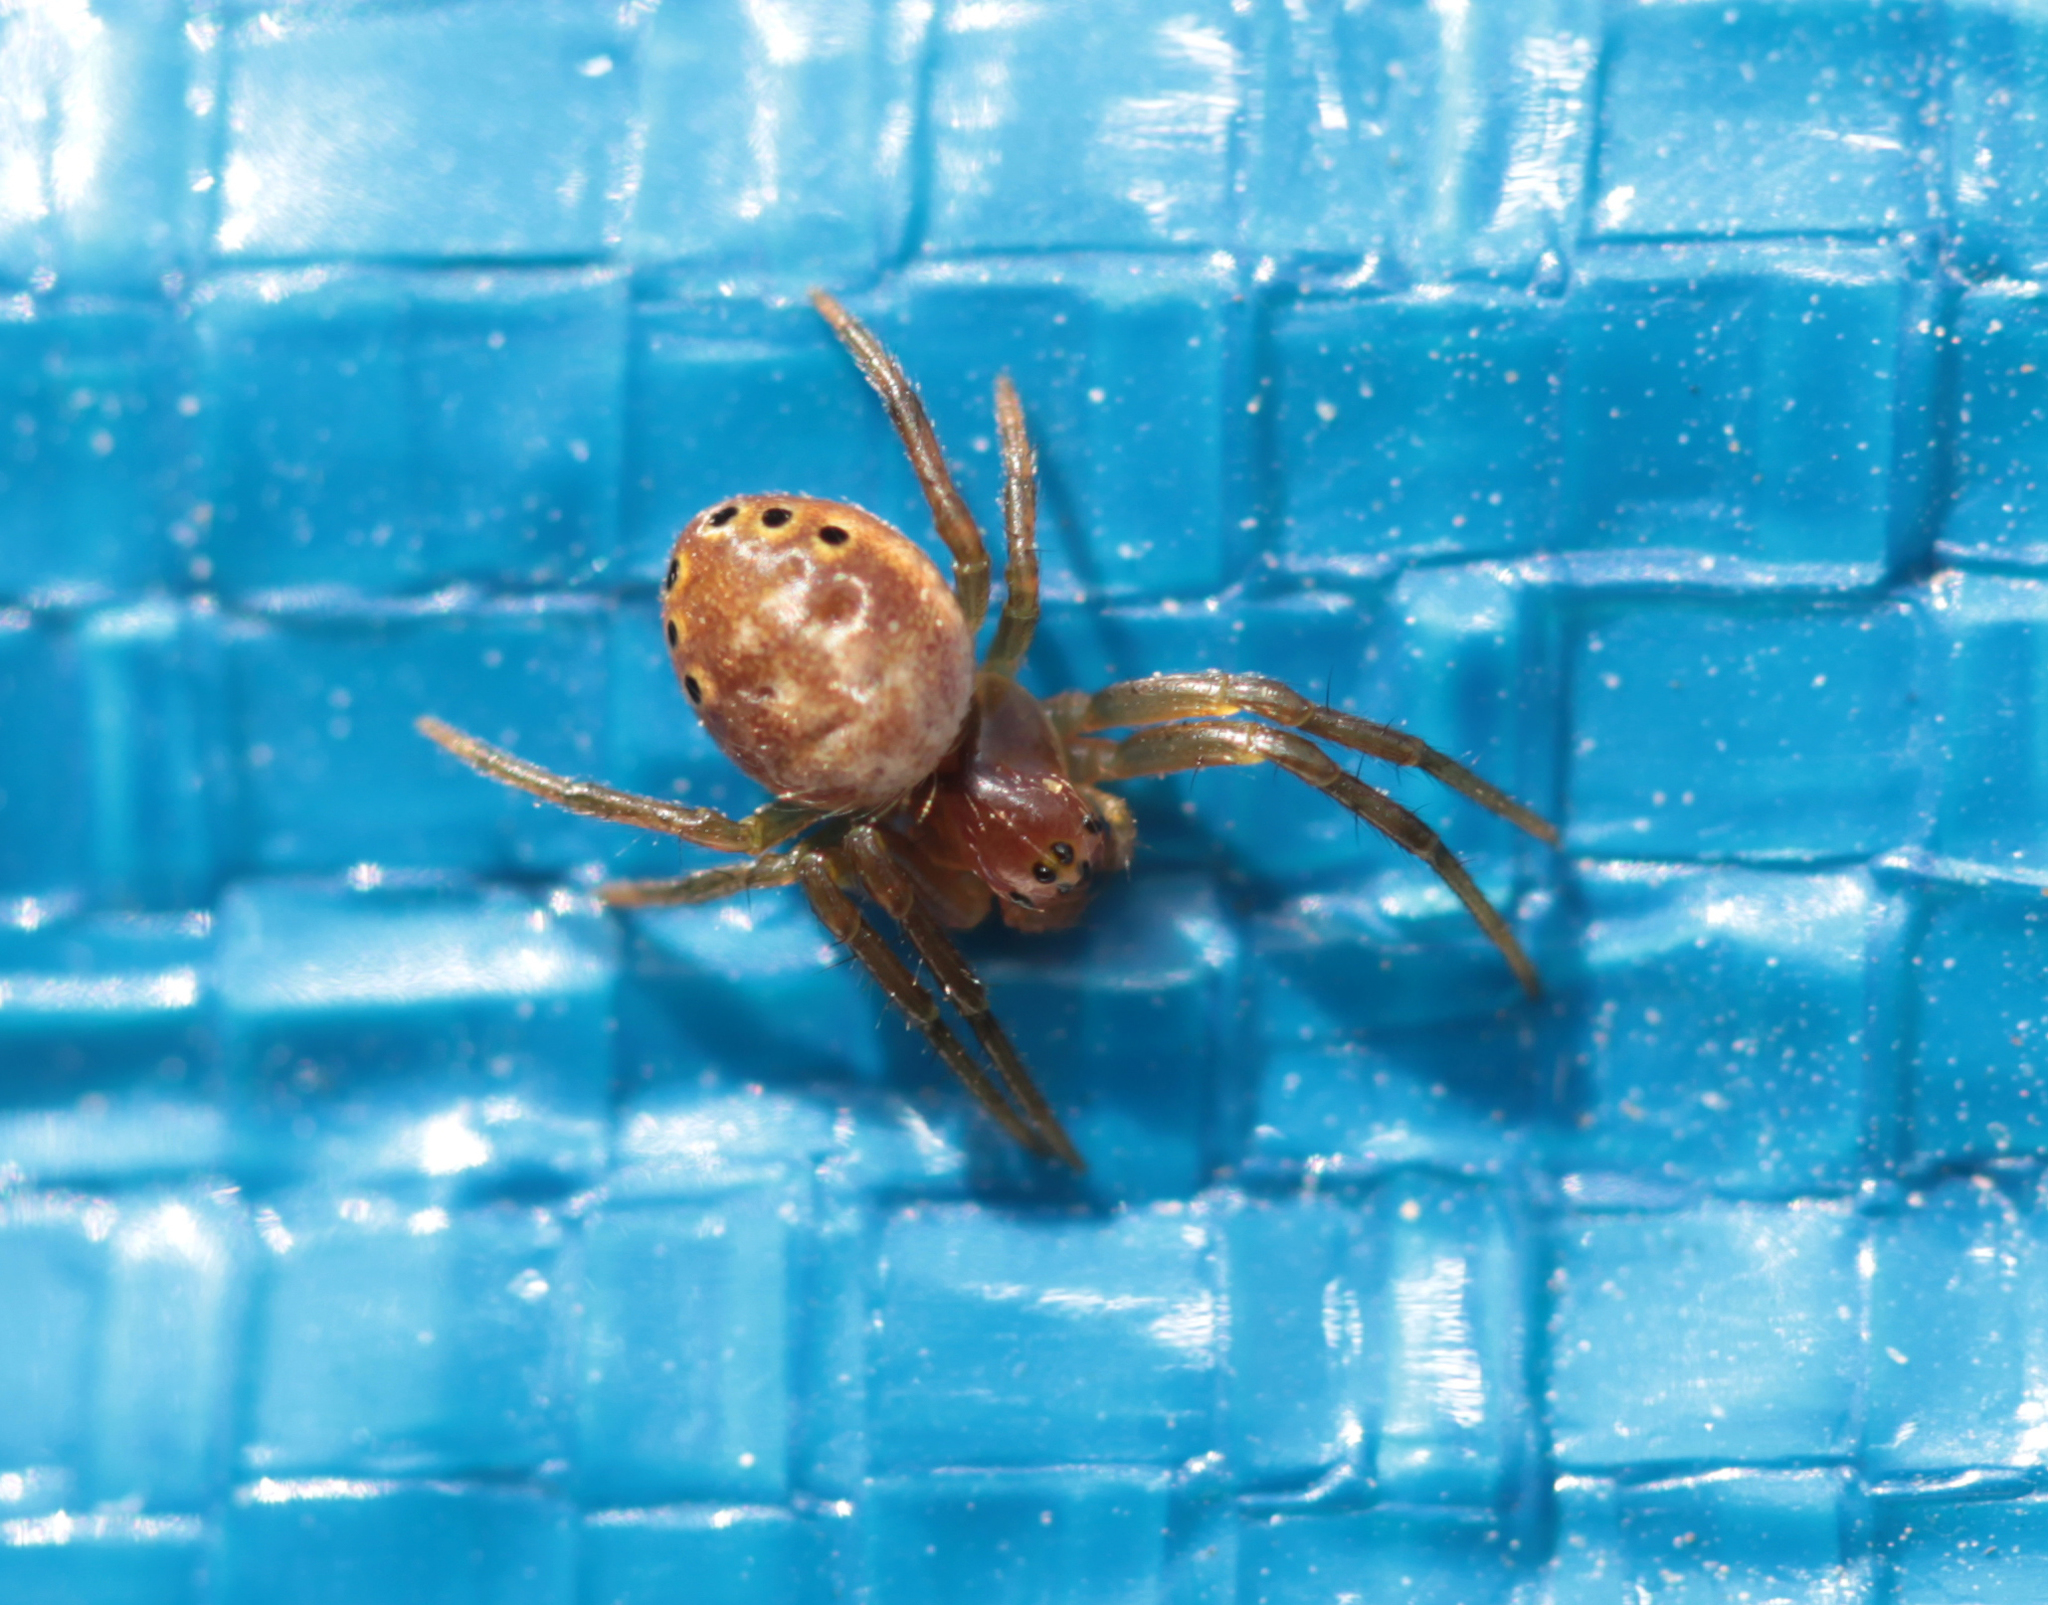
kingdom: Animalia
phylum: Arthropoda
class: Arachnida
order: Araneae
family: Araneidae
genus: Araniella
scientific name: Araniella displicata
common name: Sixspotted orb weaver
